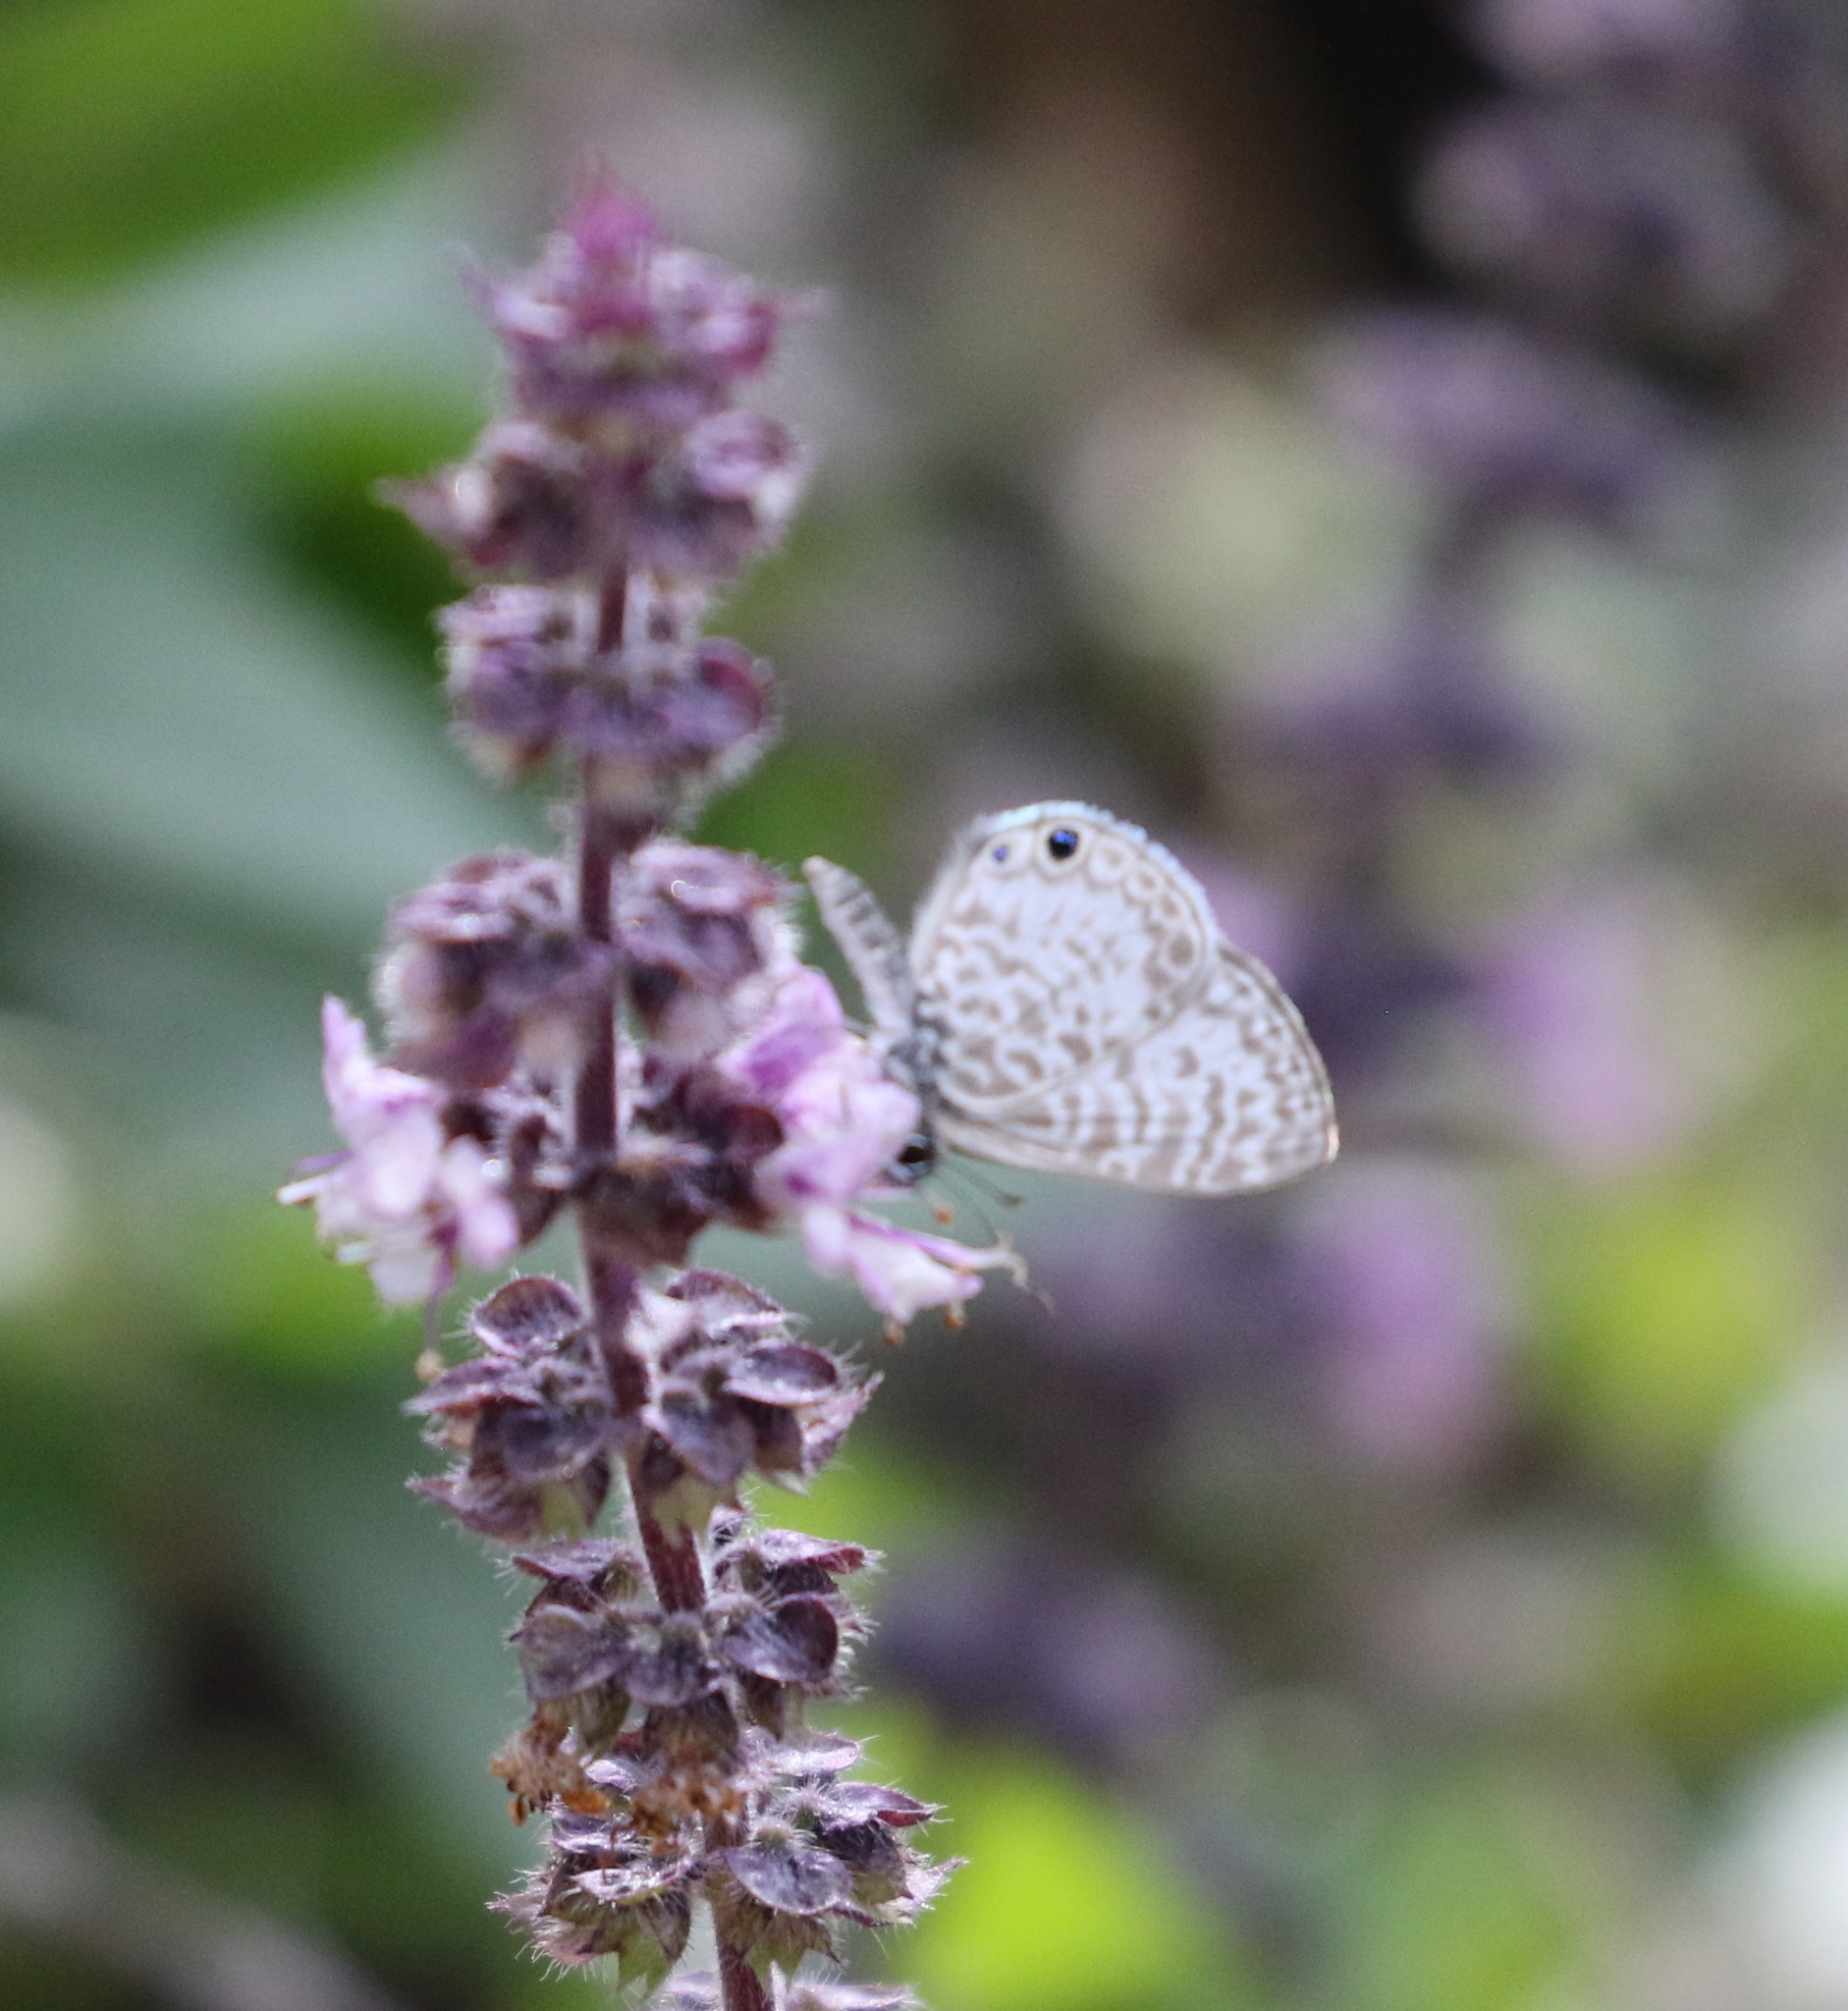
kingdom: Animalia
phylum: Arthropoda
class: Insecta
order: Lepidoptera
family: Lycaenidae
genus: Leptotes
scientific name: Leptotes cassius
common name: Cassius blue
